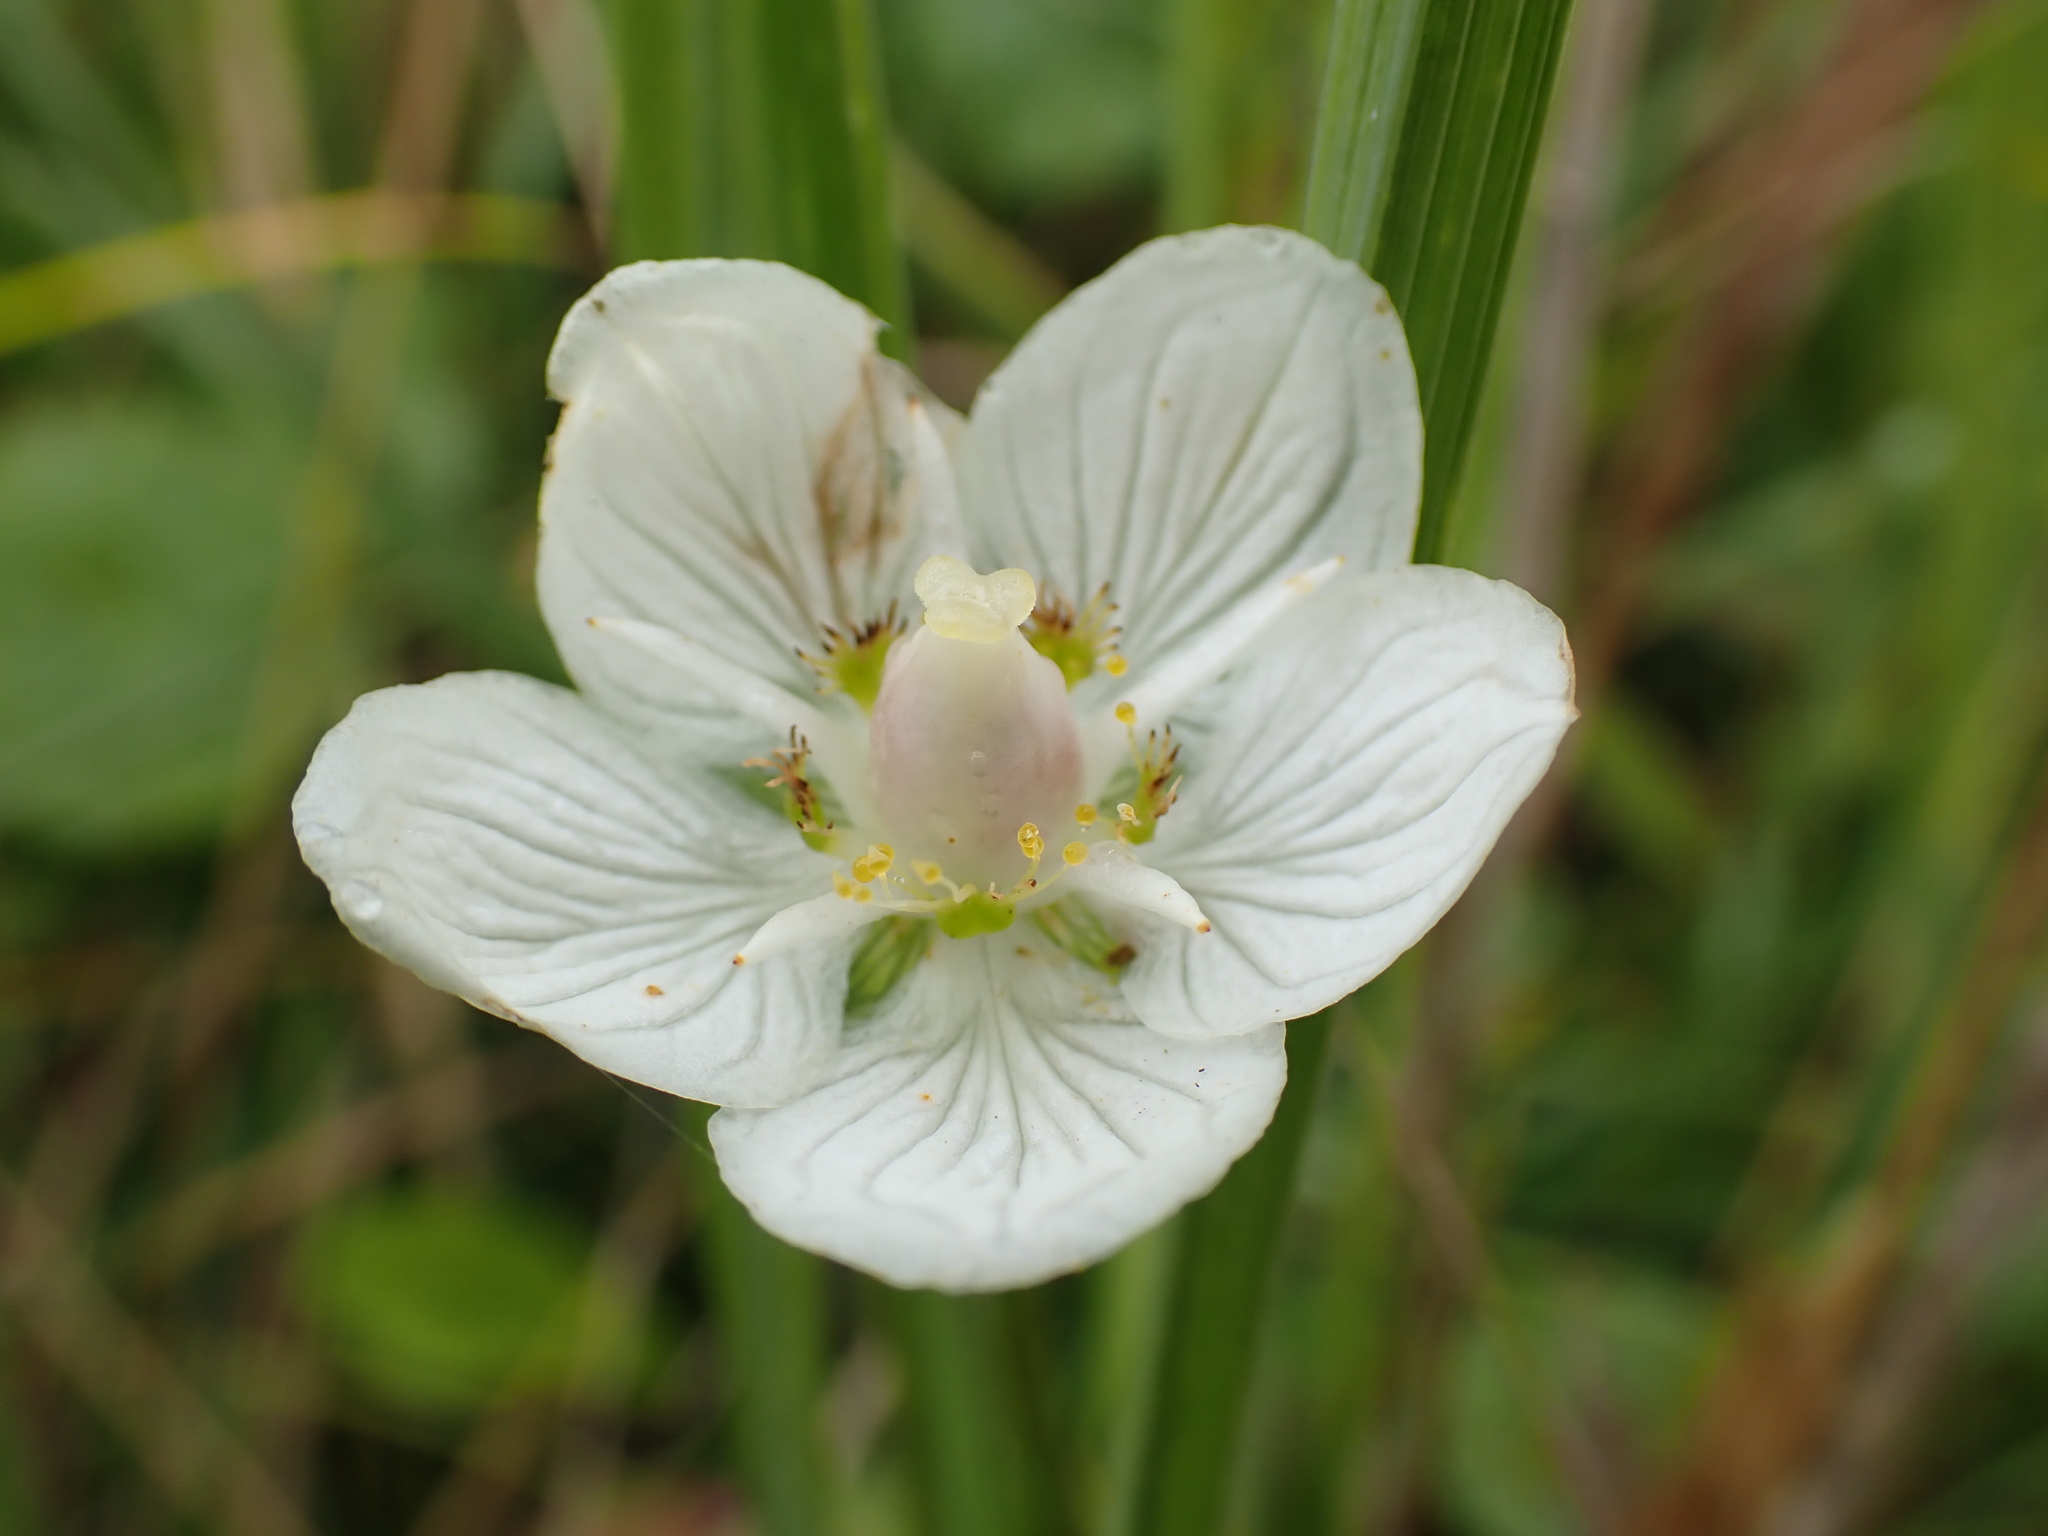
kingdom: Plantae
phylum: Tracheophyta
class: Magnoliopsida
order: Celastrales
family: Parnassiaceae
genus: Parnassia
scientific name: Parnassia palustris
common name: Grass-of-parnassus
